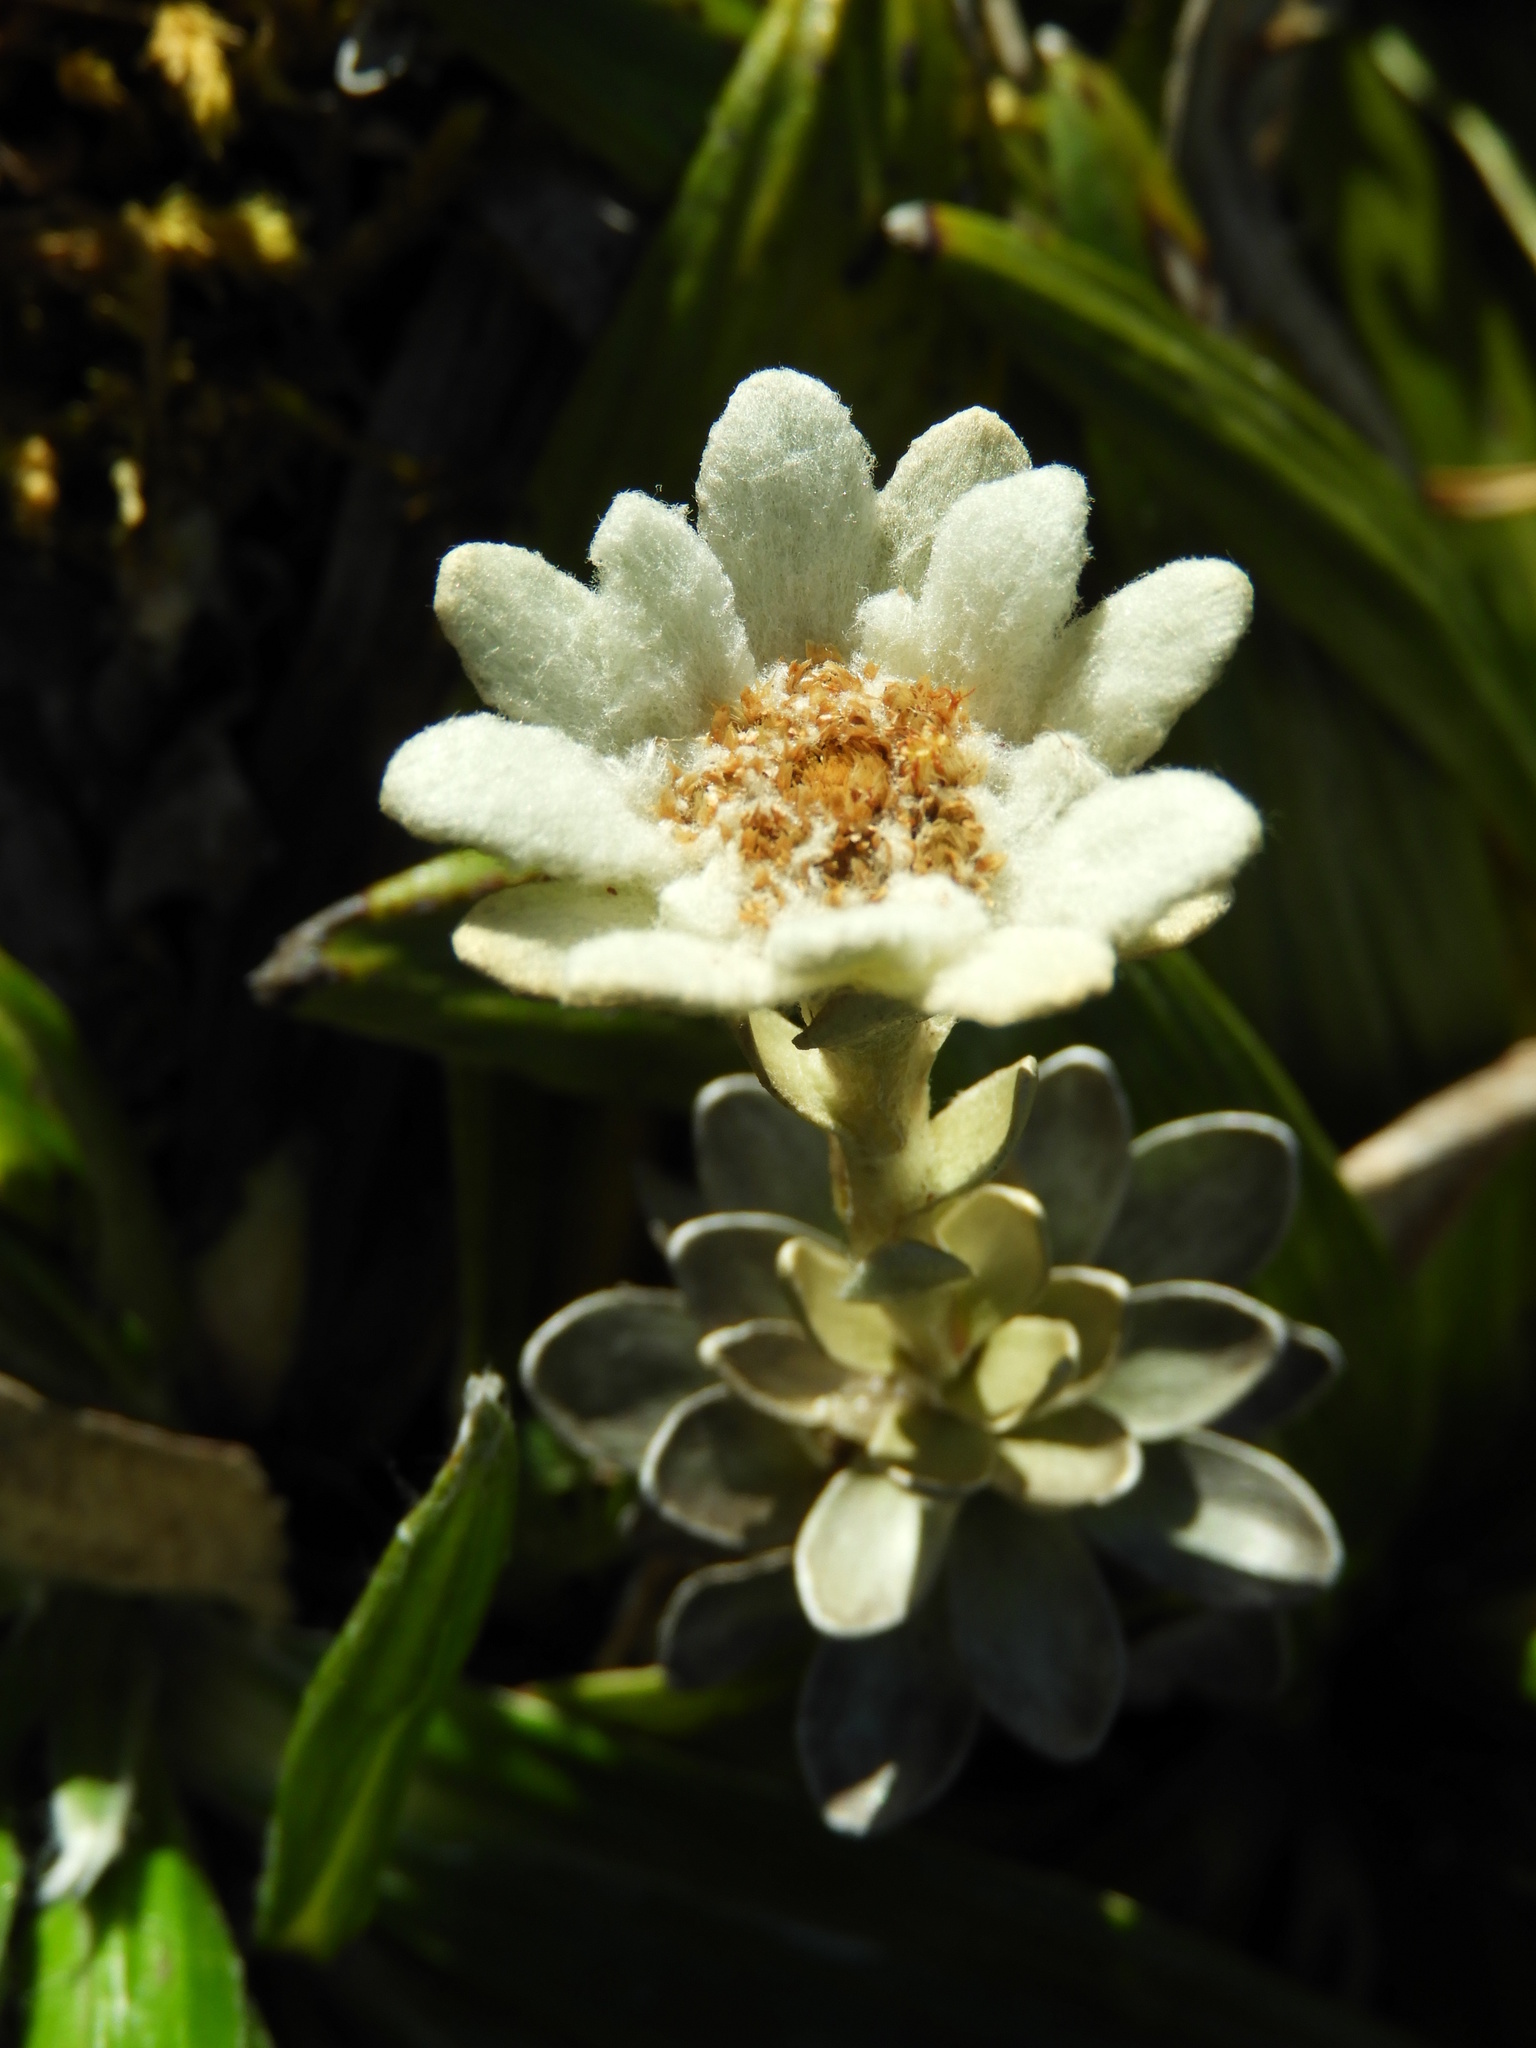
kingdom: Plantae
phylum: Tracheophyta
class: Magnoliopsida
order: Asterales
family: Asteraceae
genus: Leucogenes
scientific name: Leucogenes leontopodium
